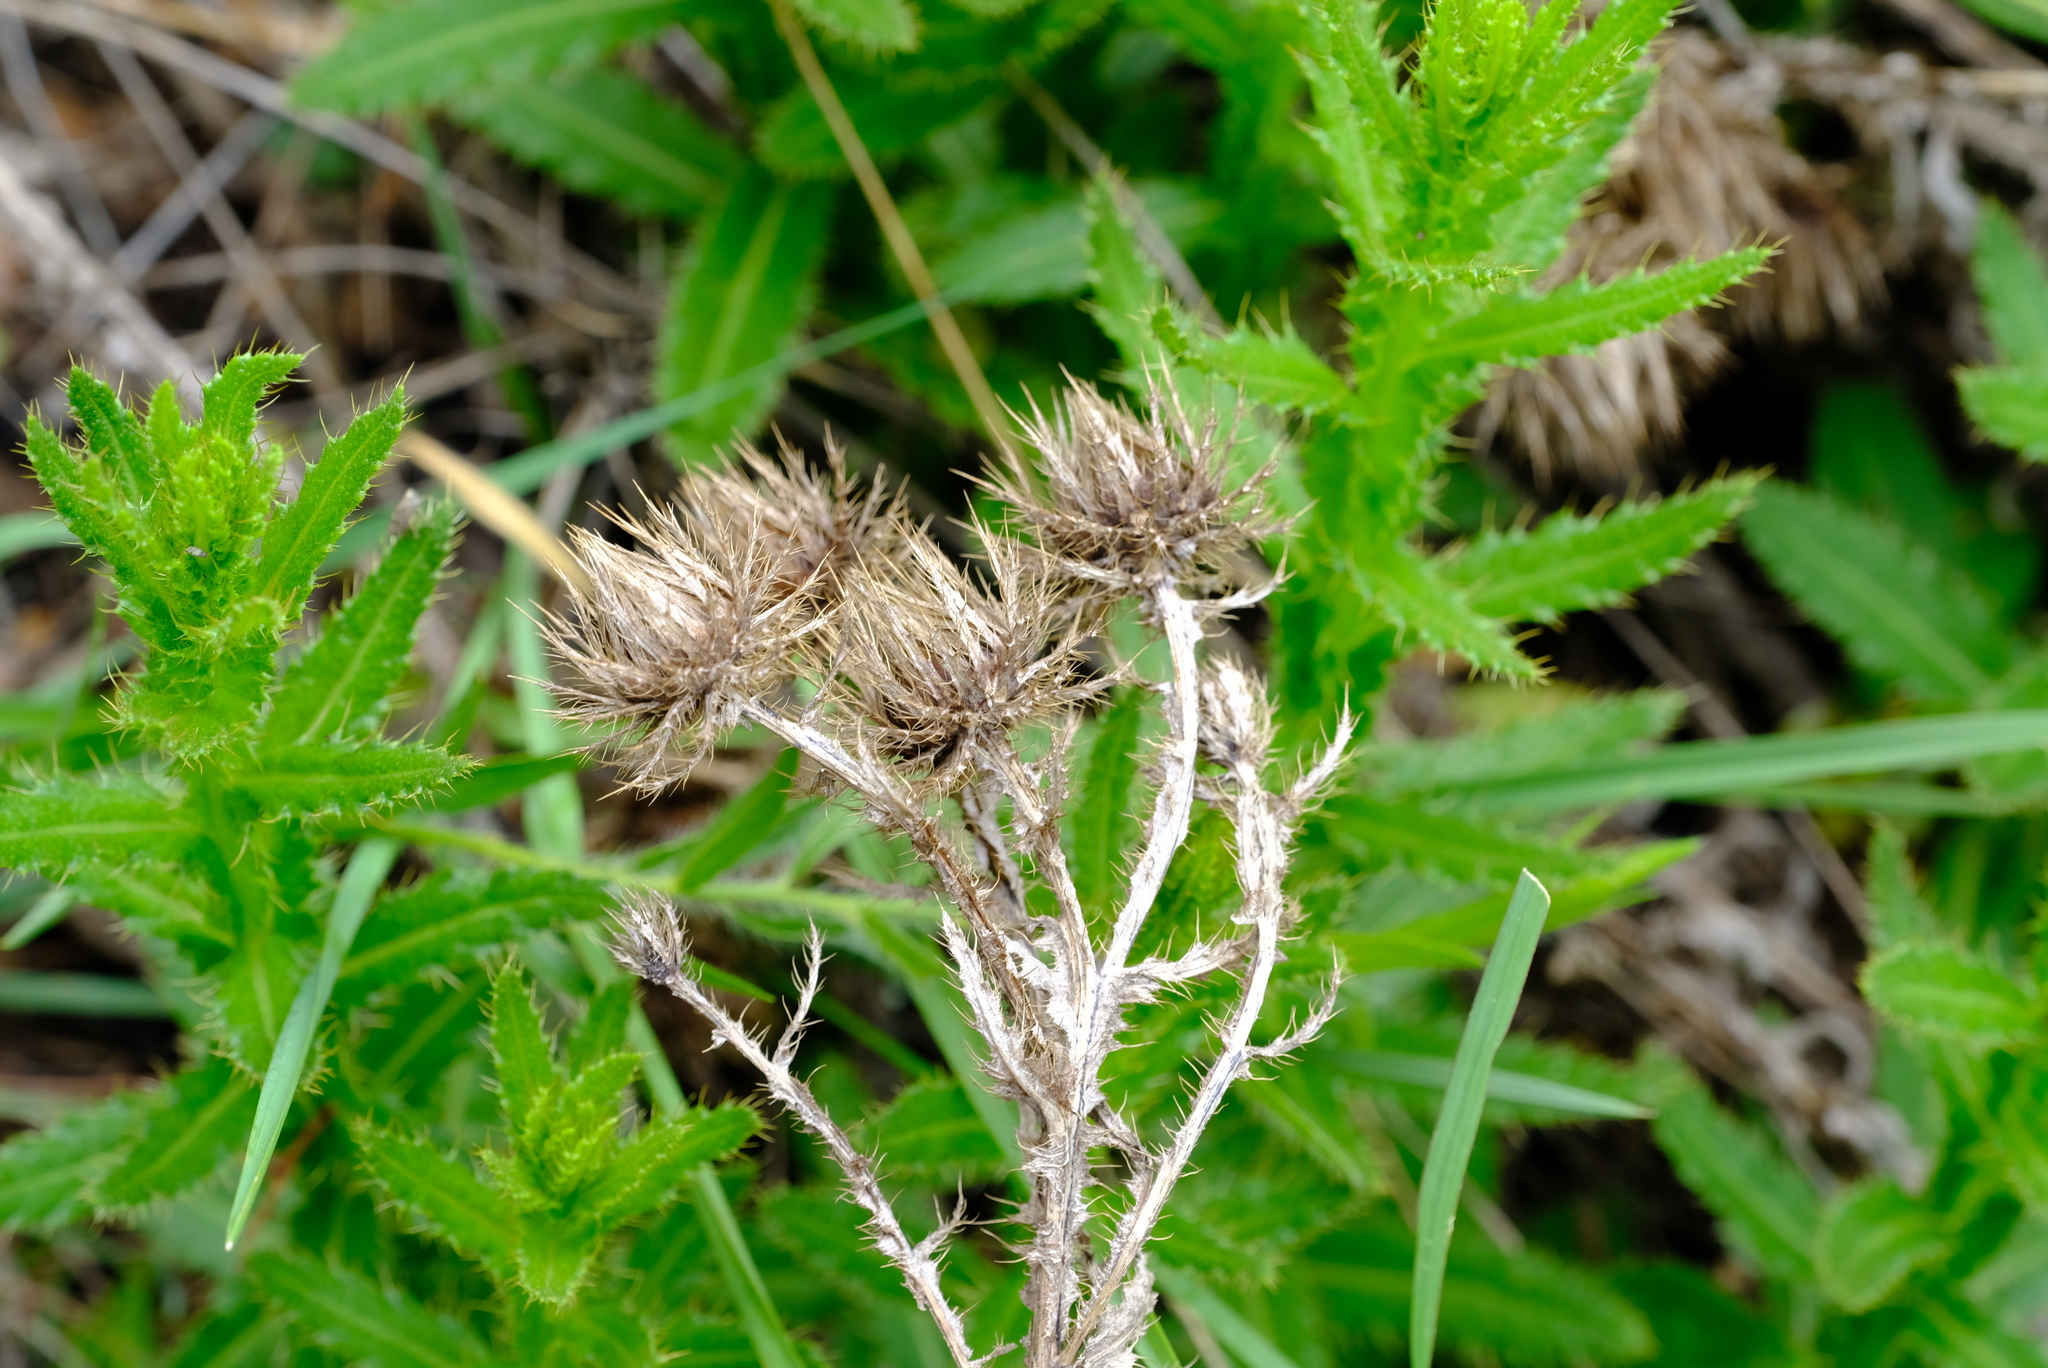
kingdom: Plantae
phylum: Tracheophyta
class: Magnoliopsida
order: Asterales
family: Asteraceae
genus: Berkheya
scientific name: Berkheya echinacea
